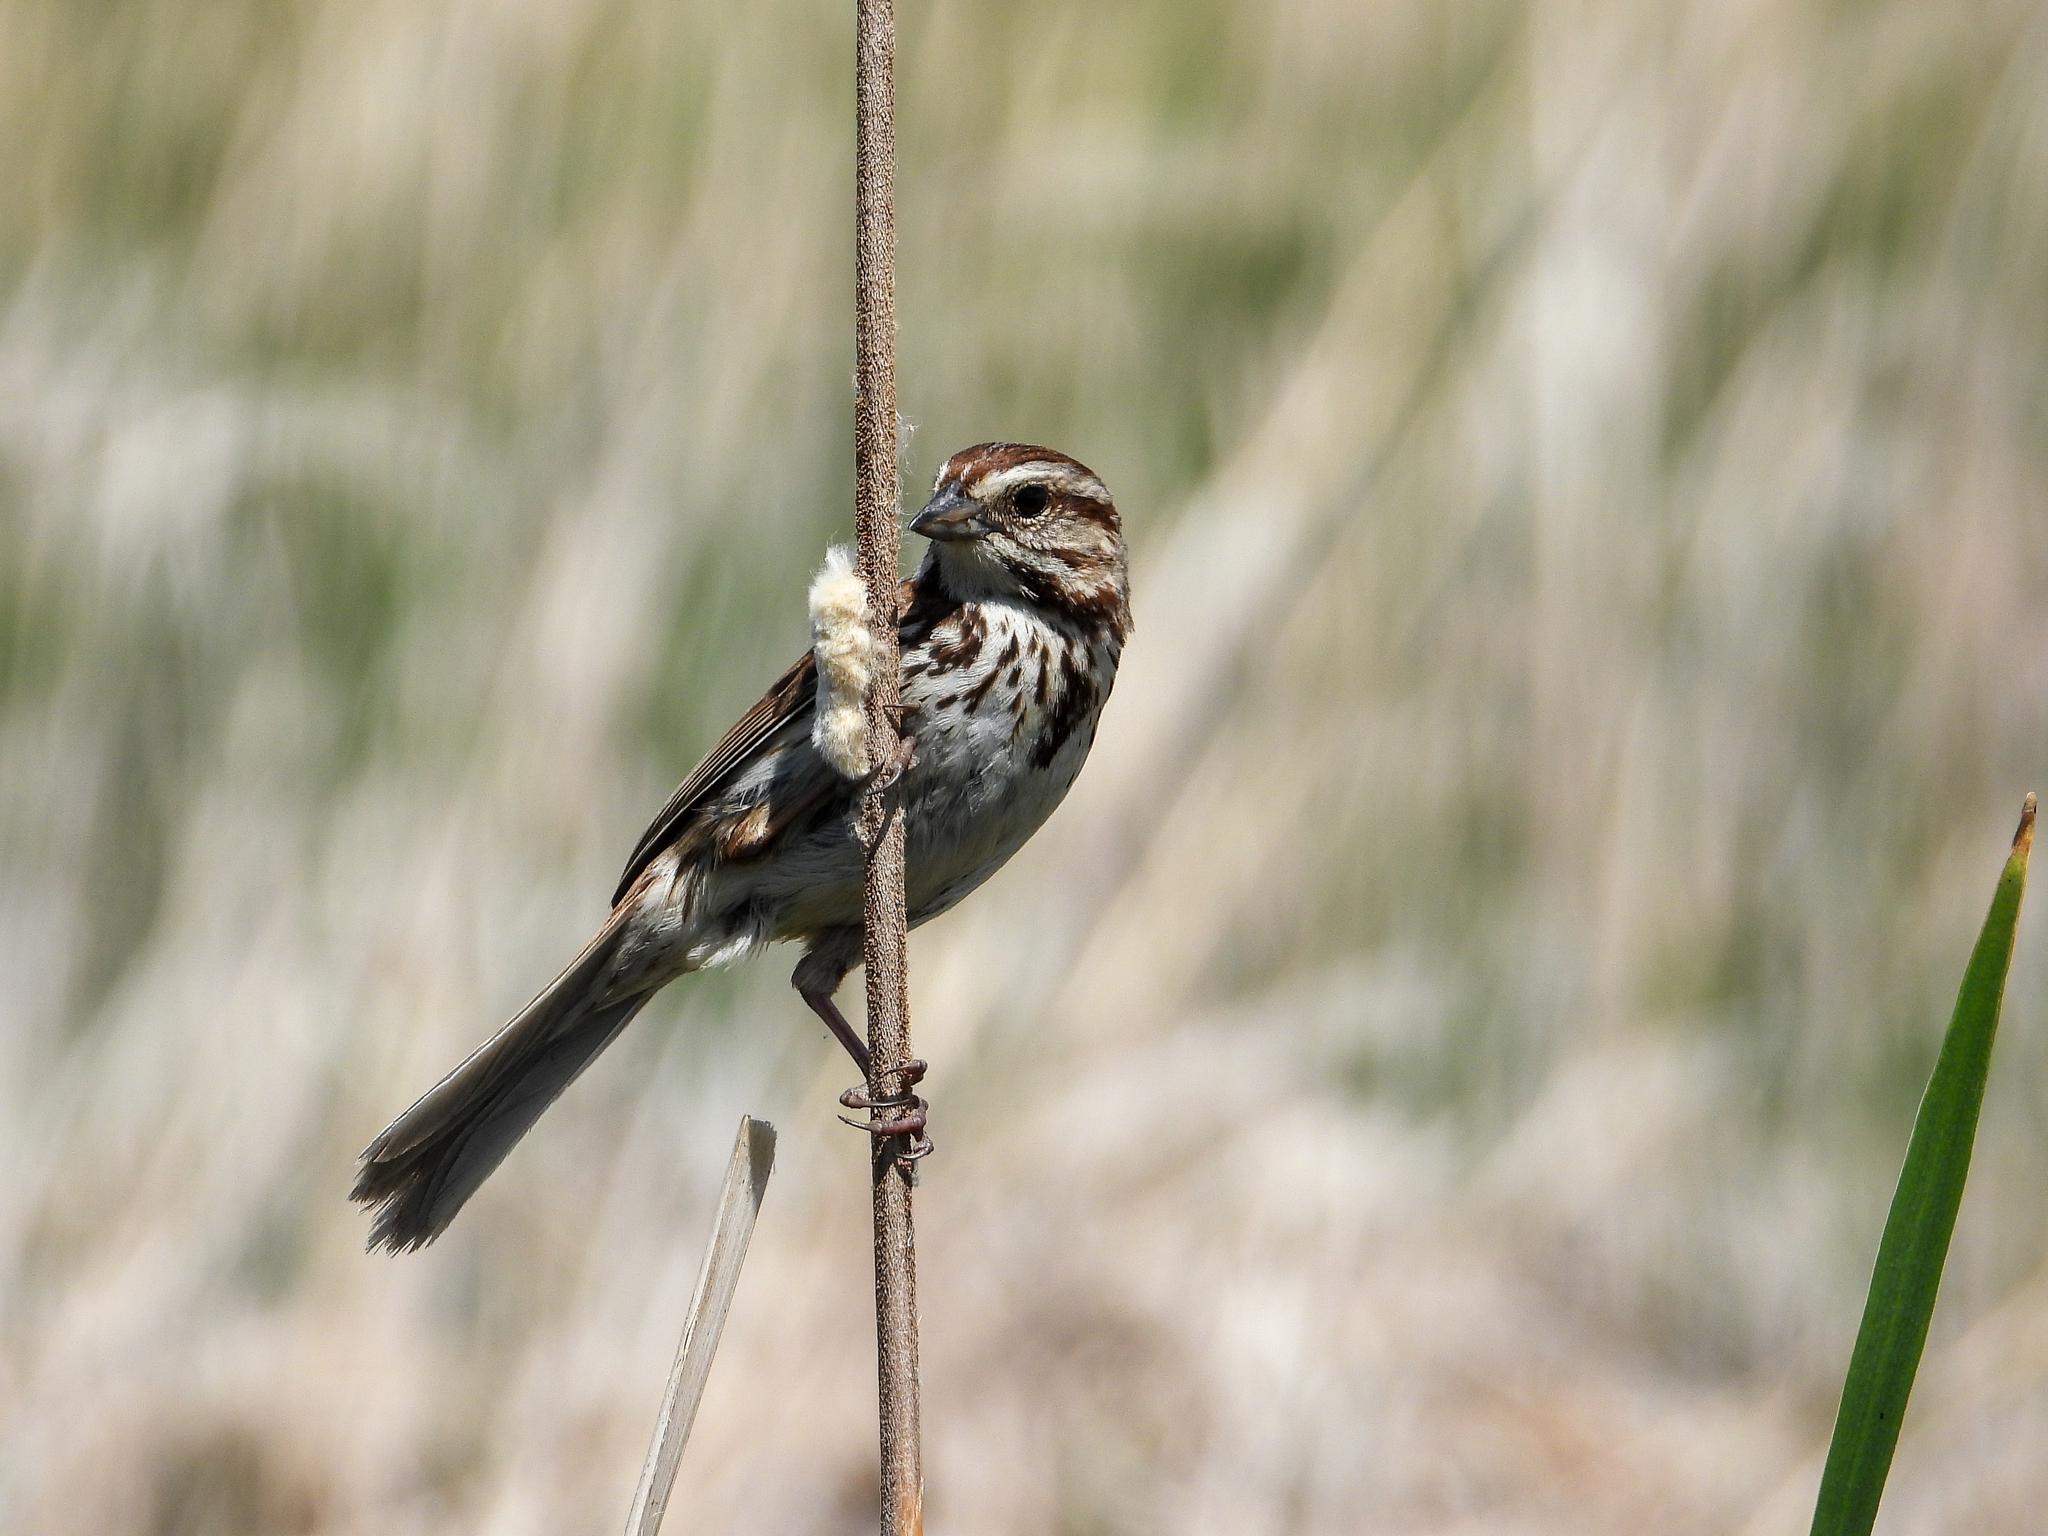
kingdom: Animalia
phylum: Chordata
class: Aves
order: Passeriformes
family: Passerellidae
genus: Melospiza
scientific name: Melospiza melodia
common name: Song sparrow
